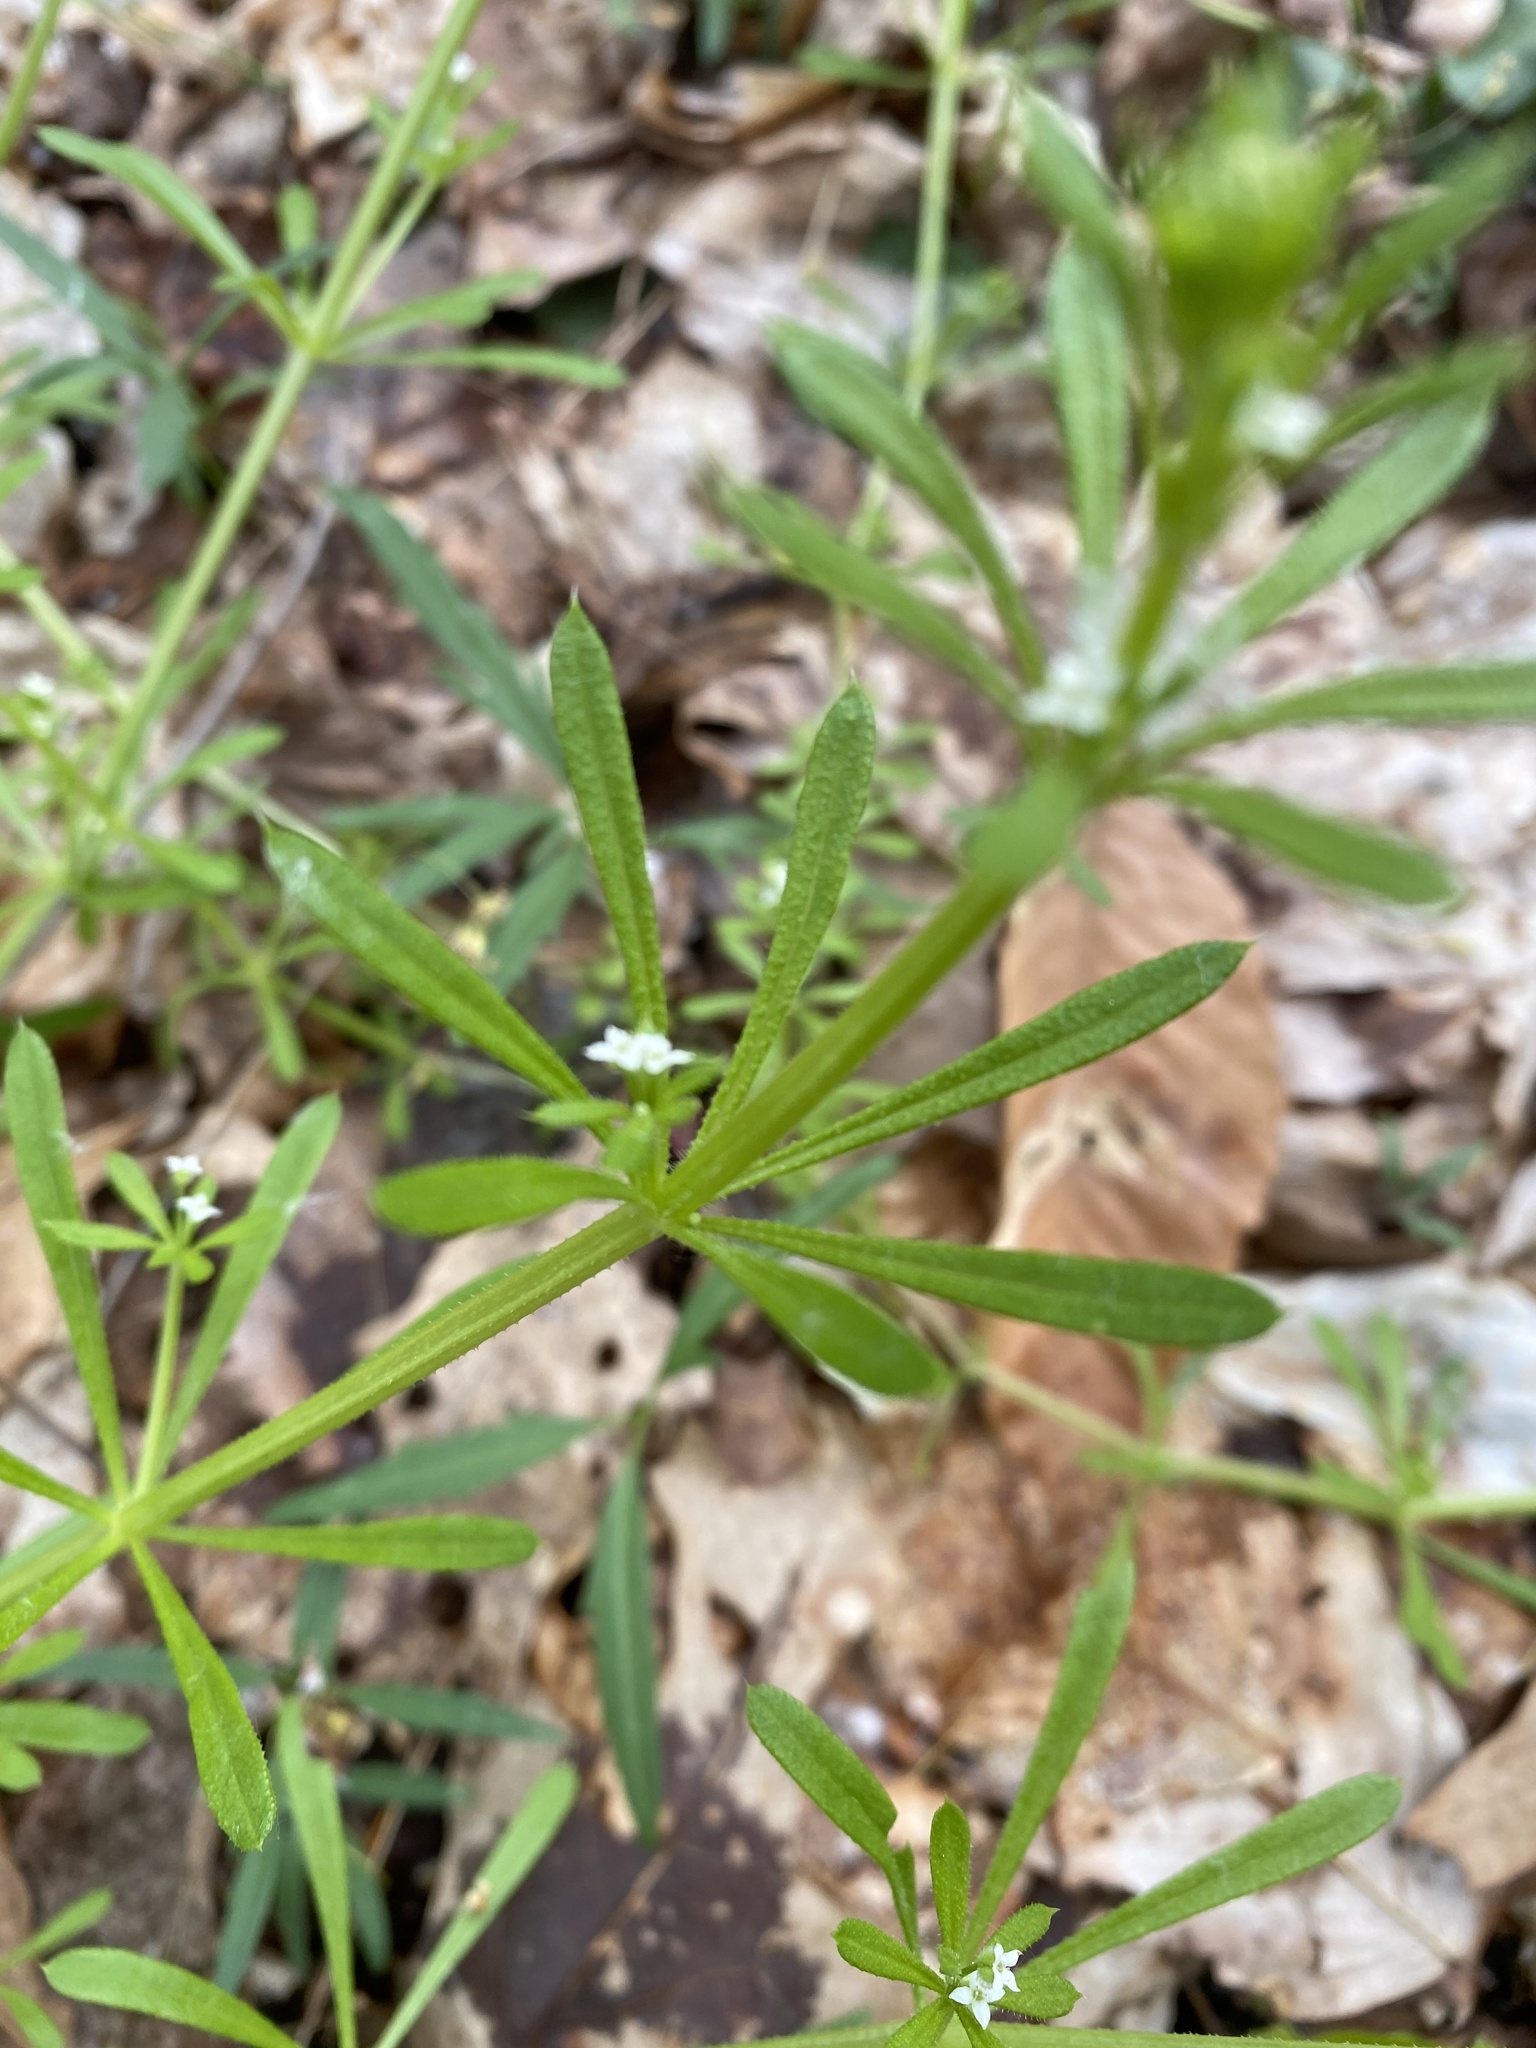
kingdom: Plantae
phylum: Tracheophyta
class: Magnoliopsida
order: Gentianales
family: Rubiaceae
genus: Galium
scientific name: Galium aparine
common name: Cleavers
